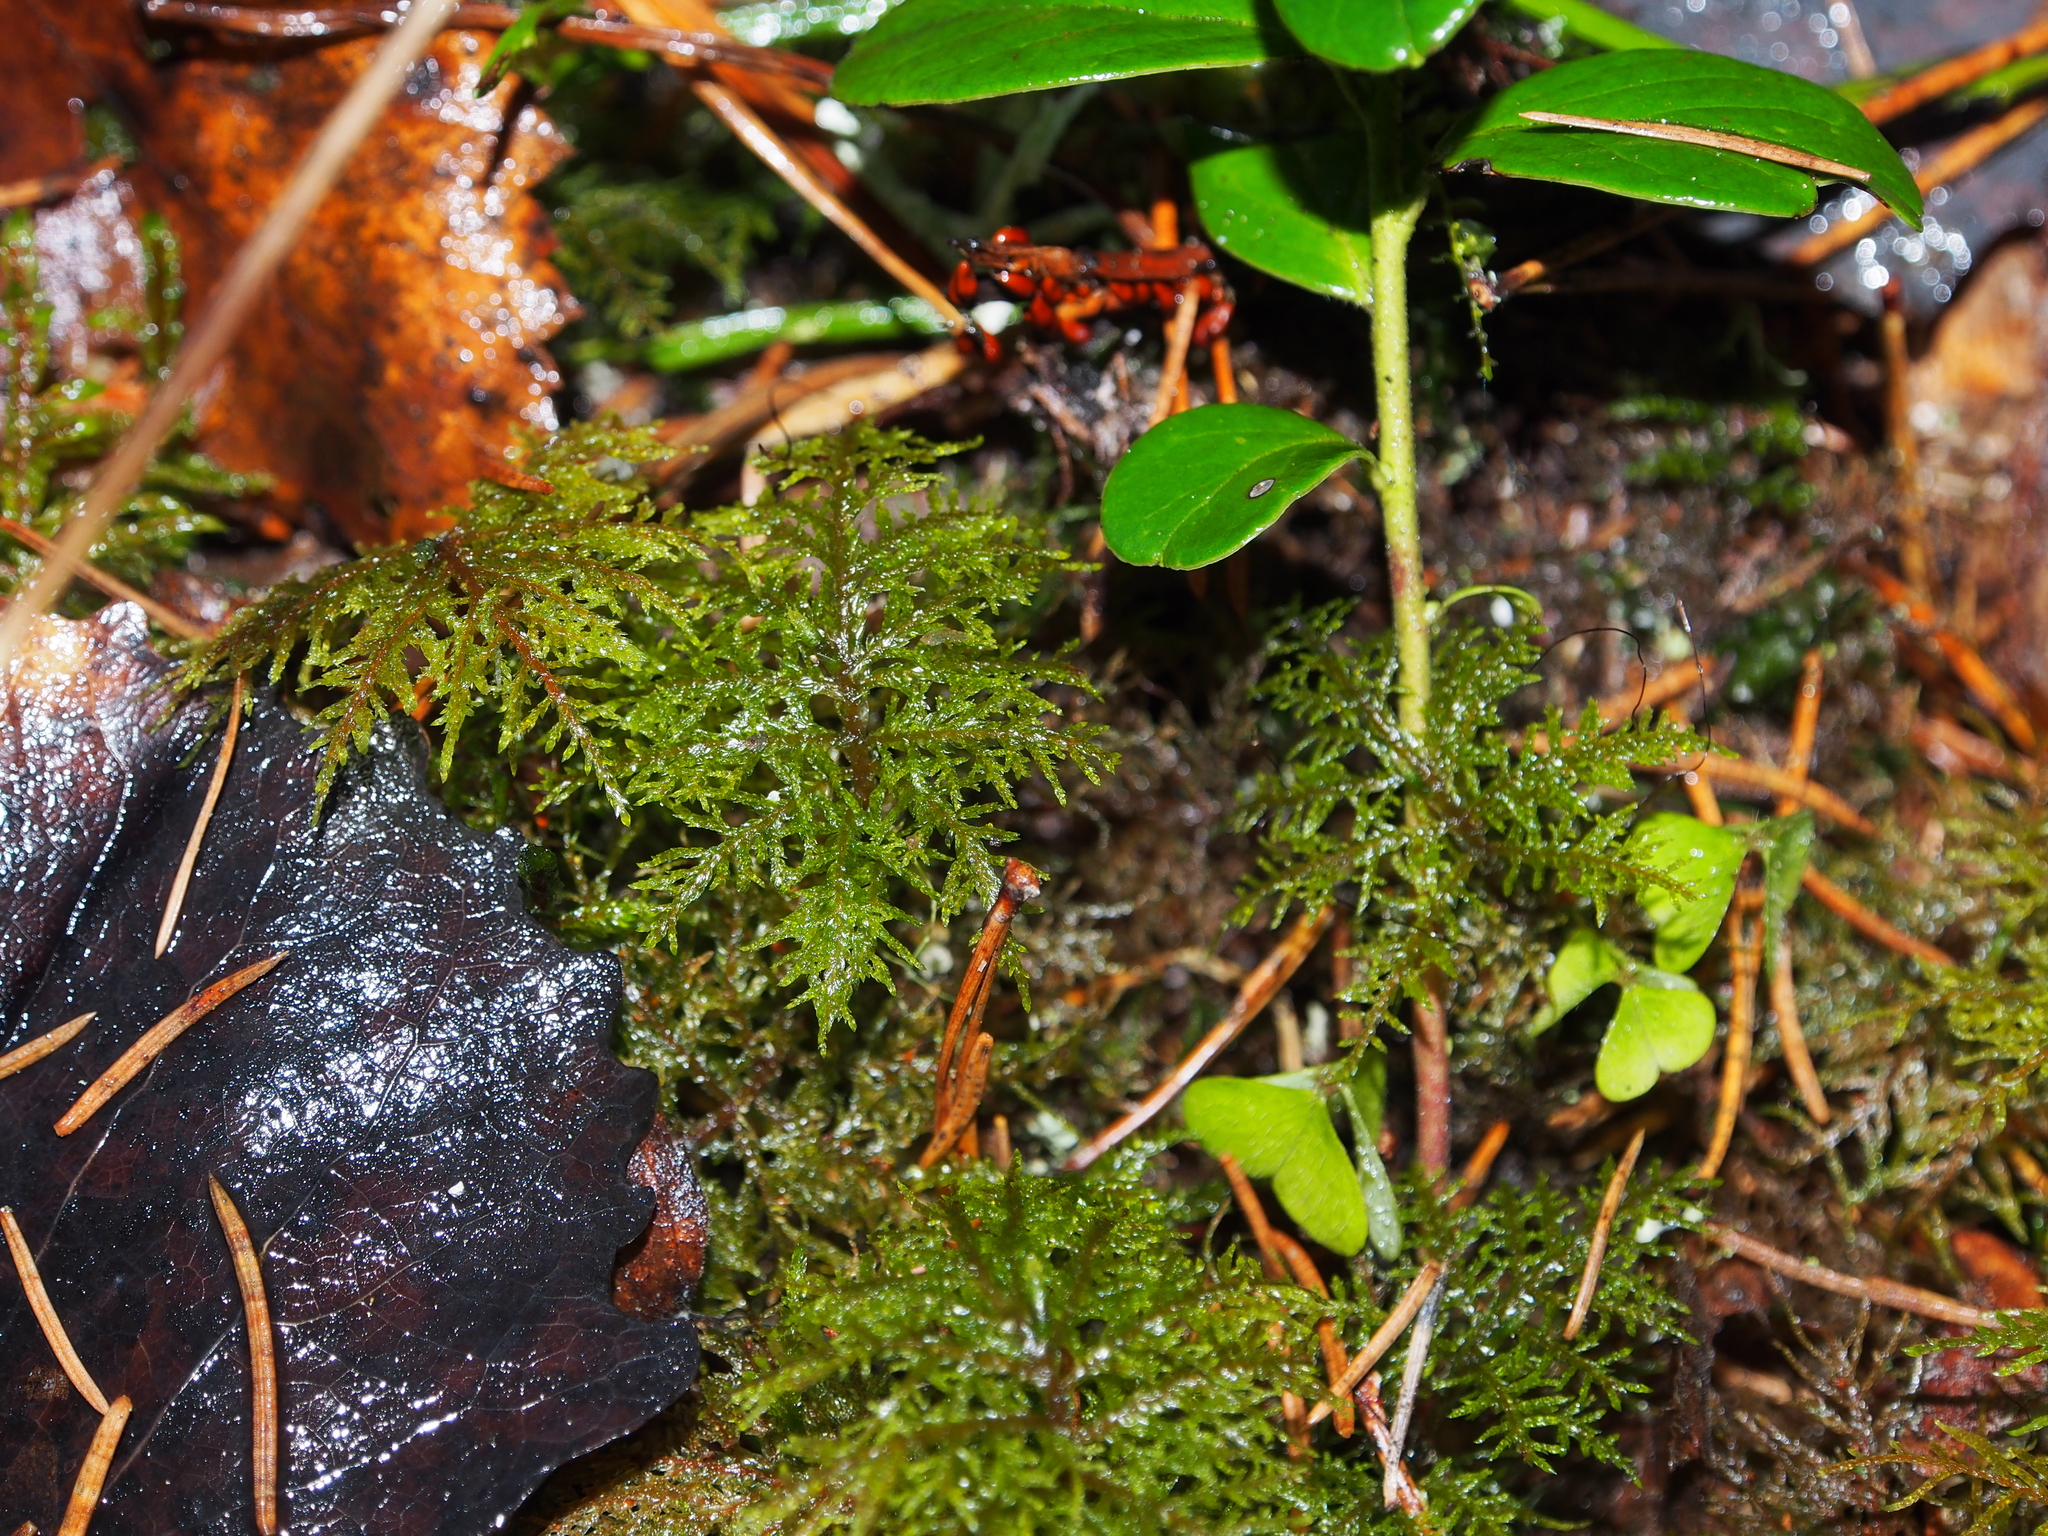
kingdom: Plantae
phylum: Bryophyta
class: Bryopsida
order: Hypnales
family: Hylocomiaceae
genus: Hylocomium
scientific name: Hylocomium splendens
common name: Stairstep moss
